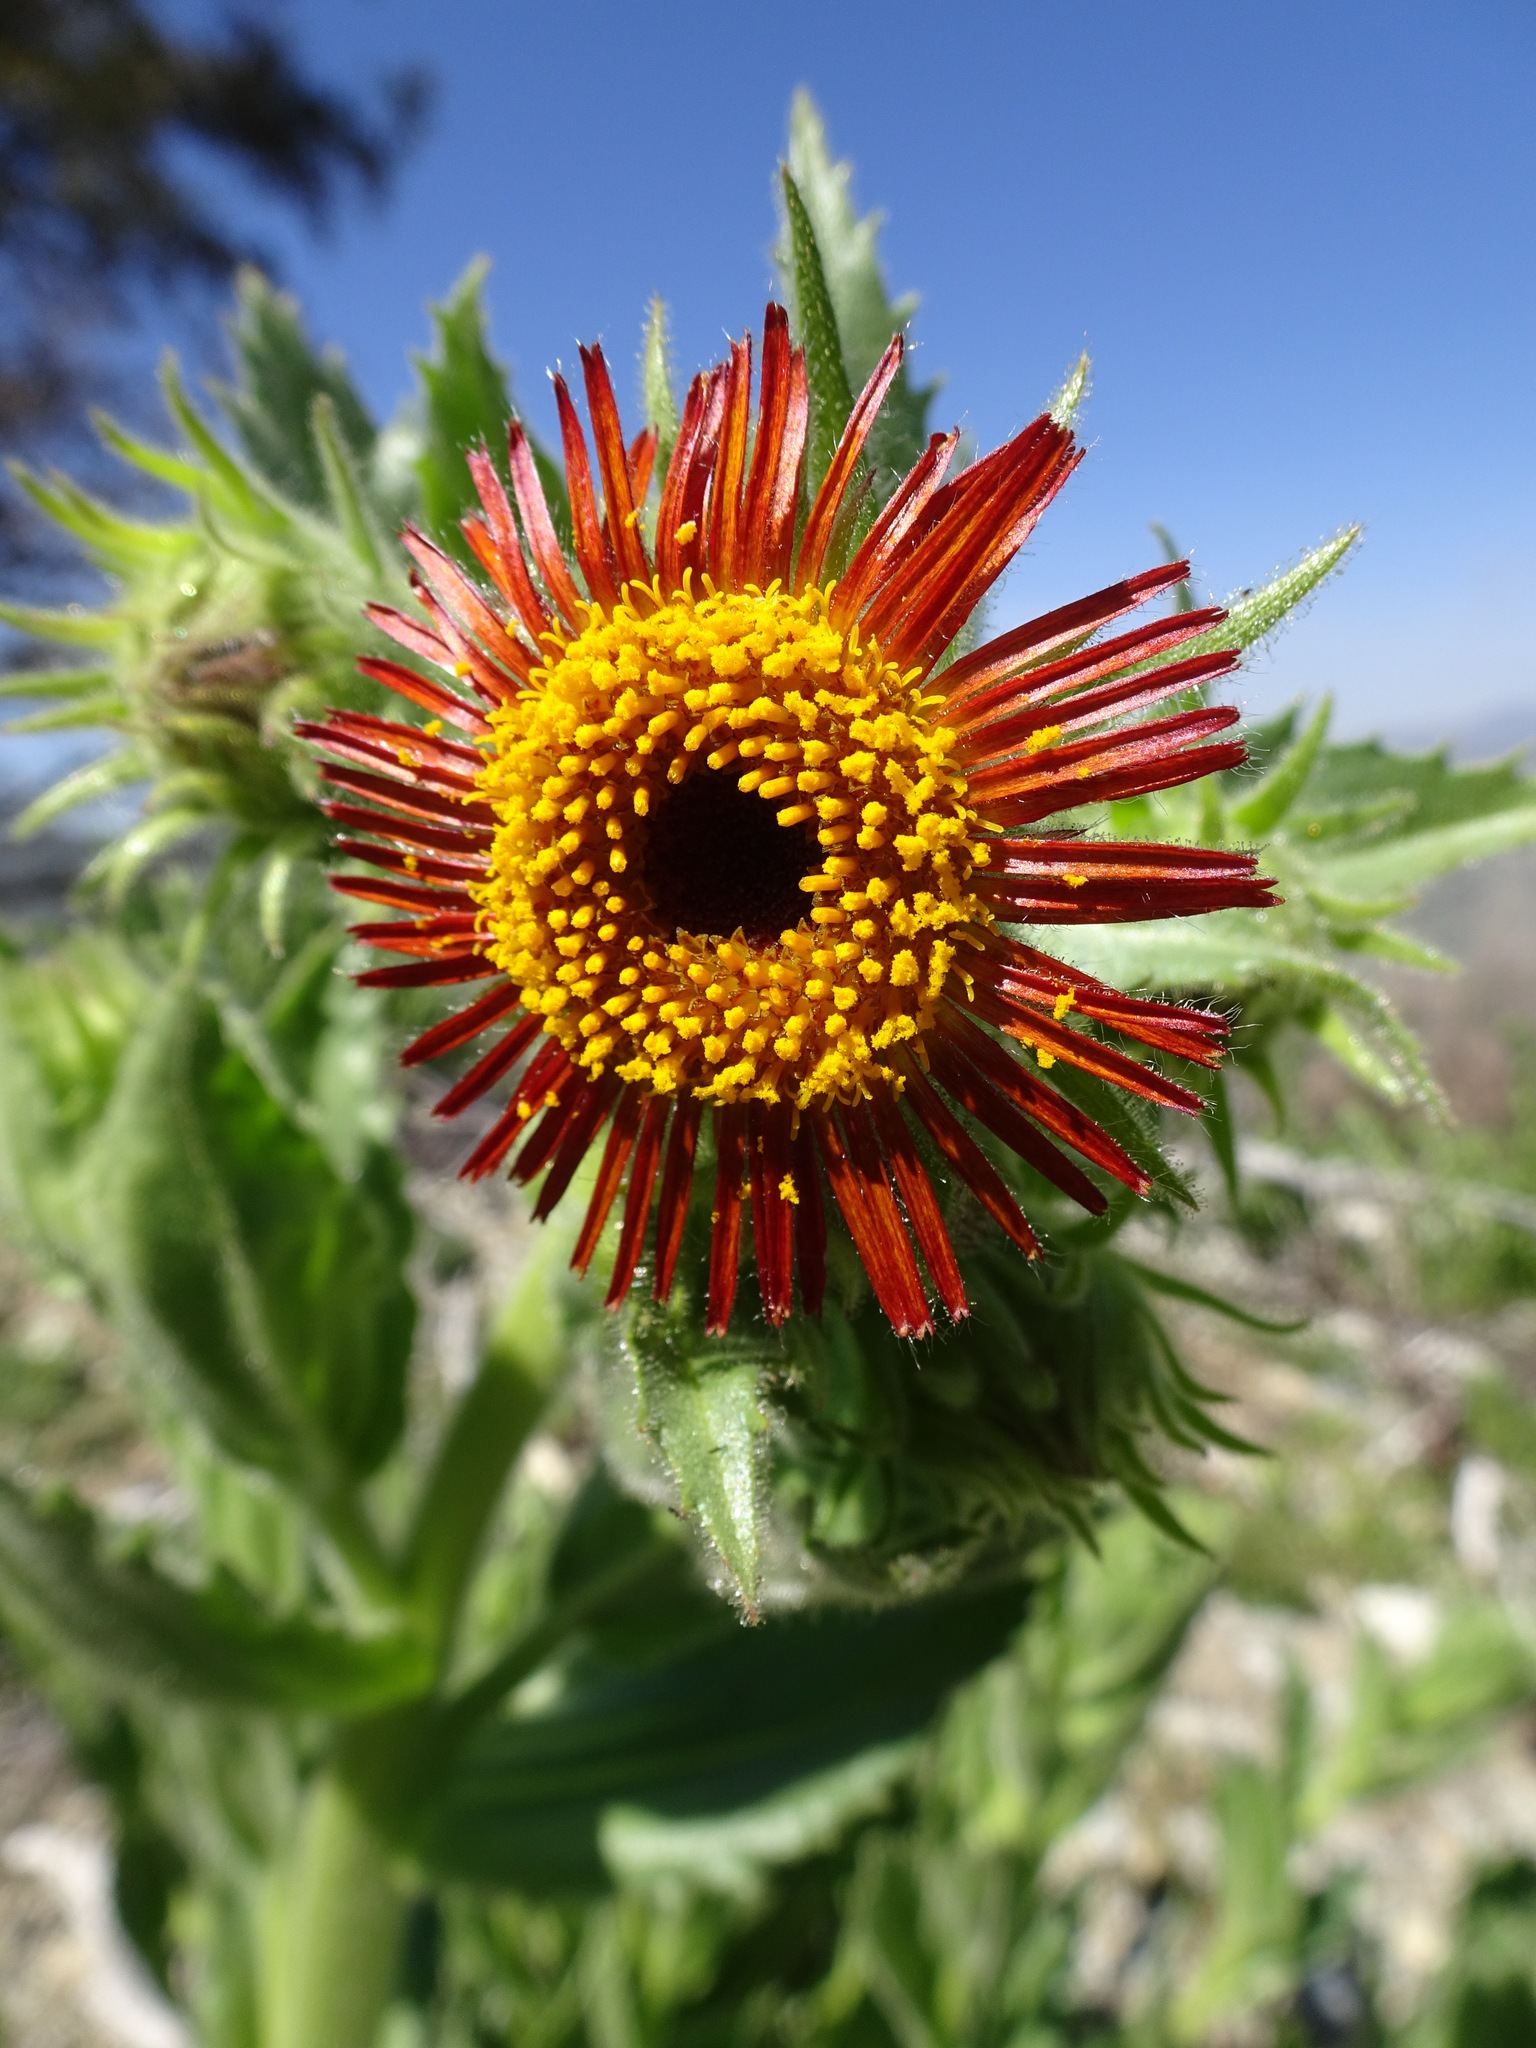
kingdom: Plantae
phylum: Tracheophyta
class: Magnoliopsida
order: Asterales
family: Asteraceae
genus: Hulsea
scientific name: Hulsea heterochroma
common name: Redray alpinegold
